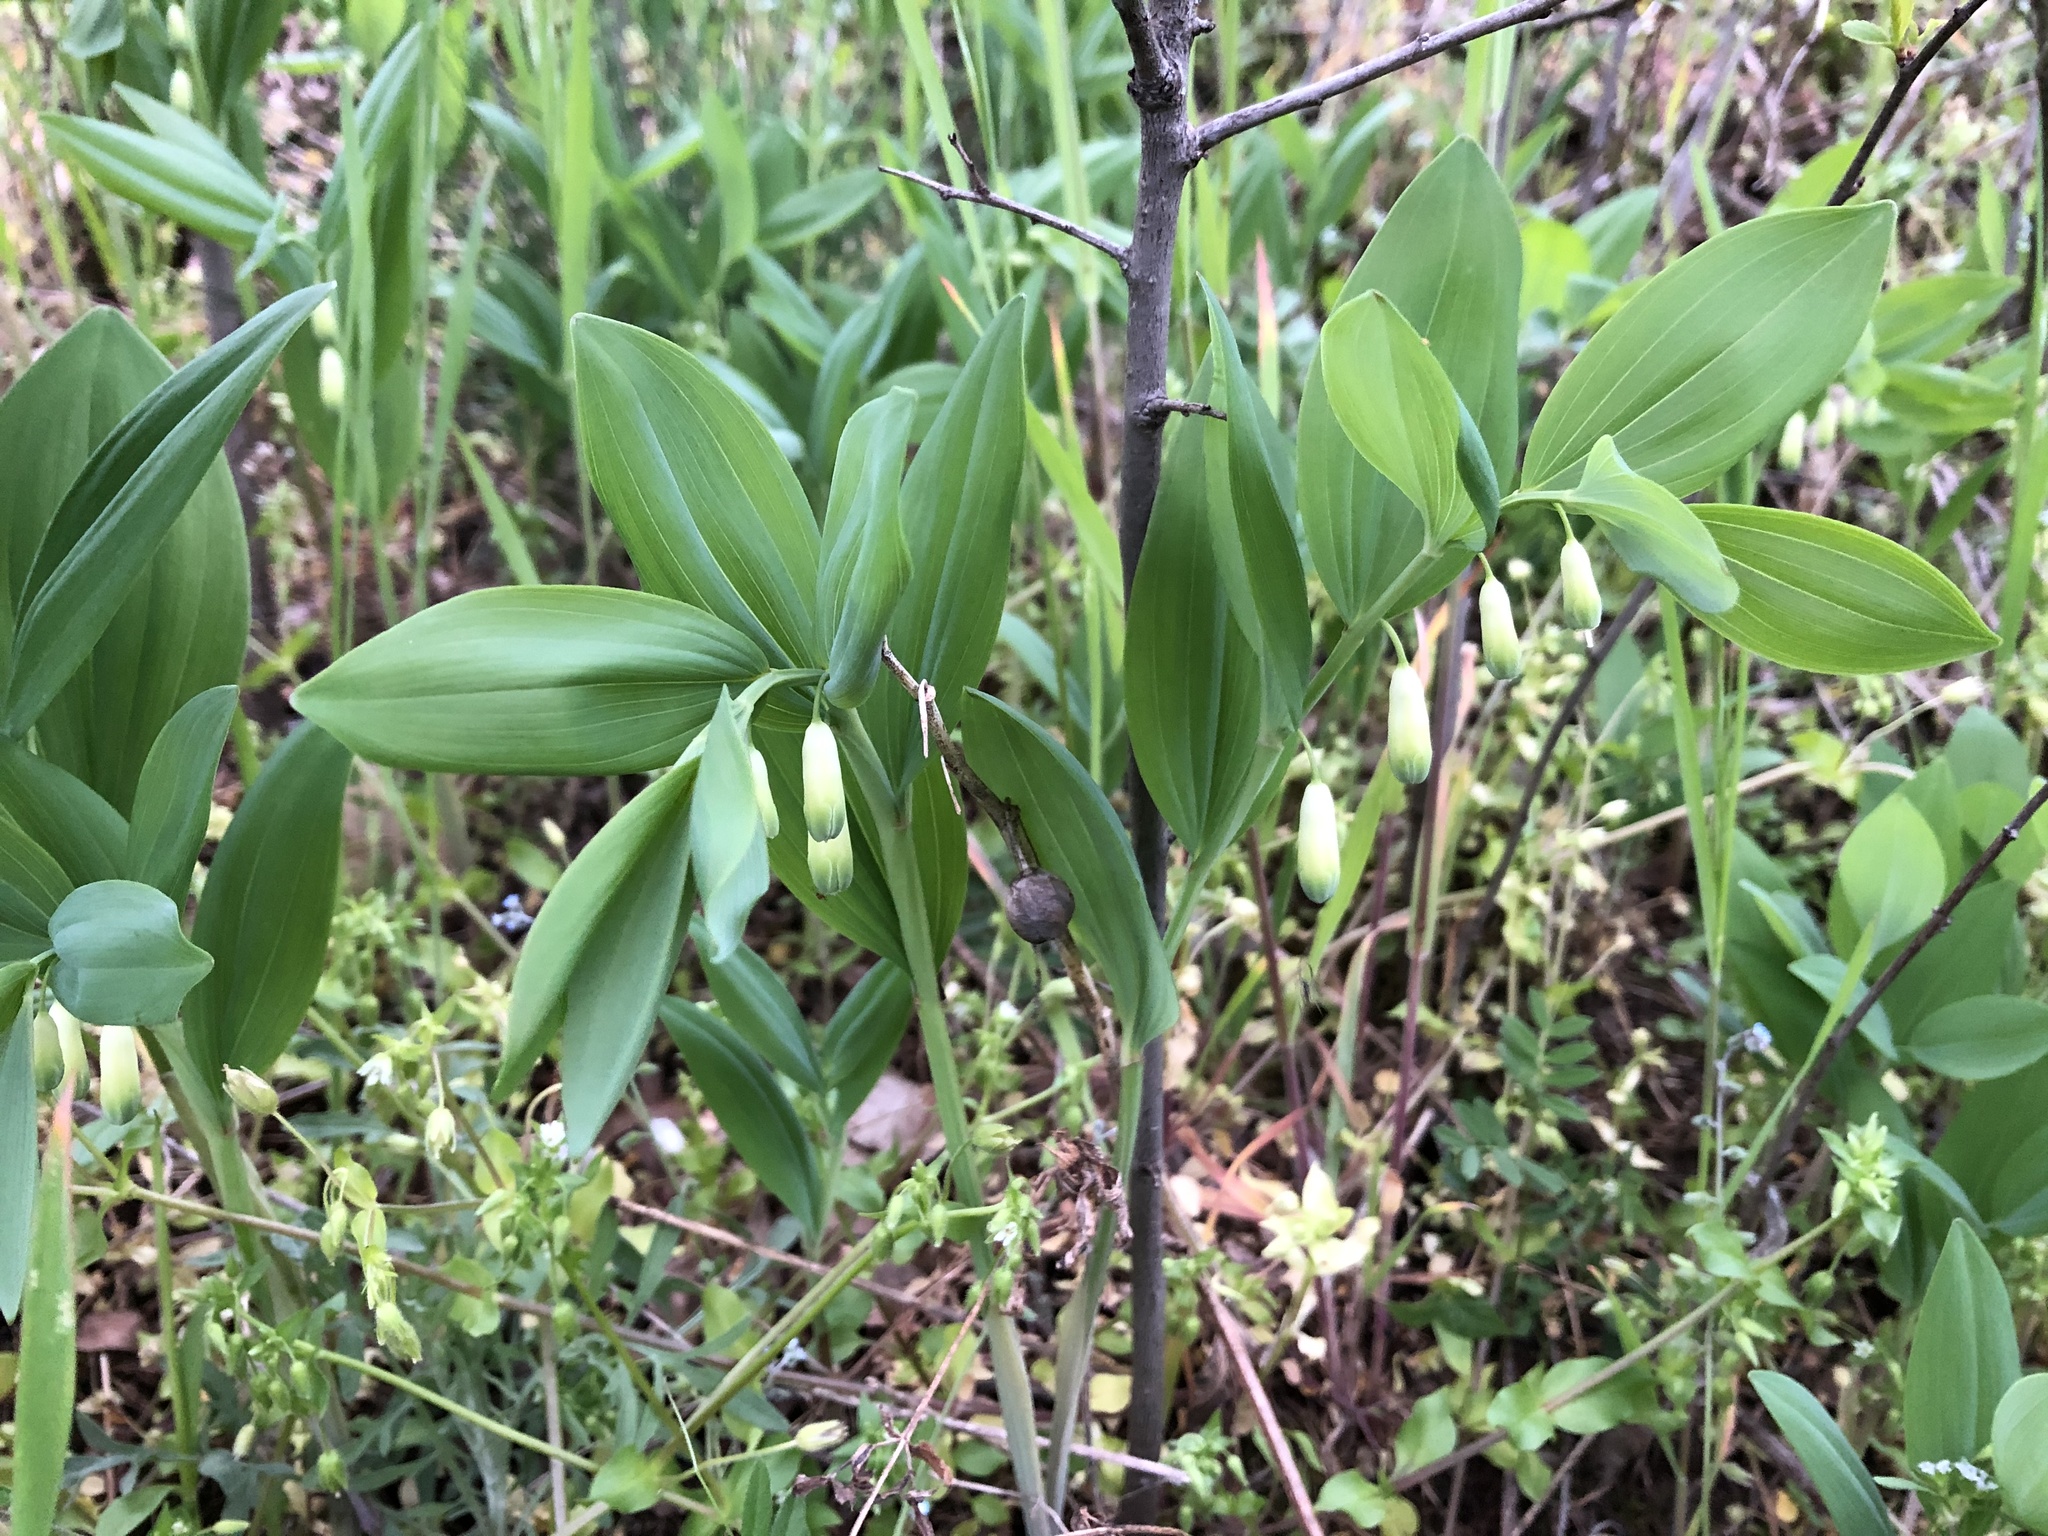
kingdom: Plantae
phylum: Tracheophyta
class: Liliopsida
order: Asparagales
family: Asparagaceae
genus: Polygonatum
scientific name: Polygonatum multiflorum
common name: Solomon's-seal
